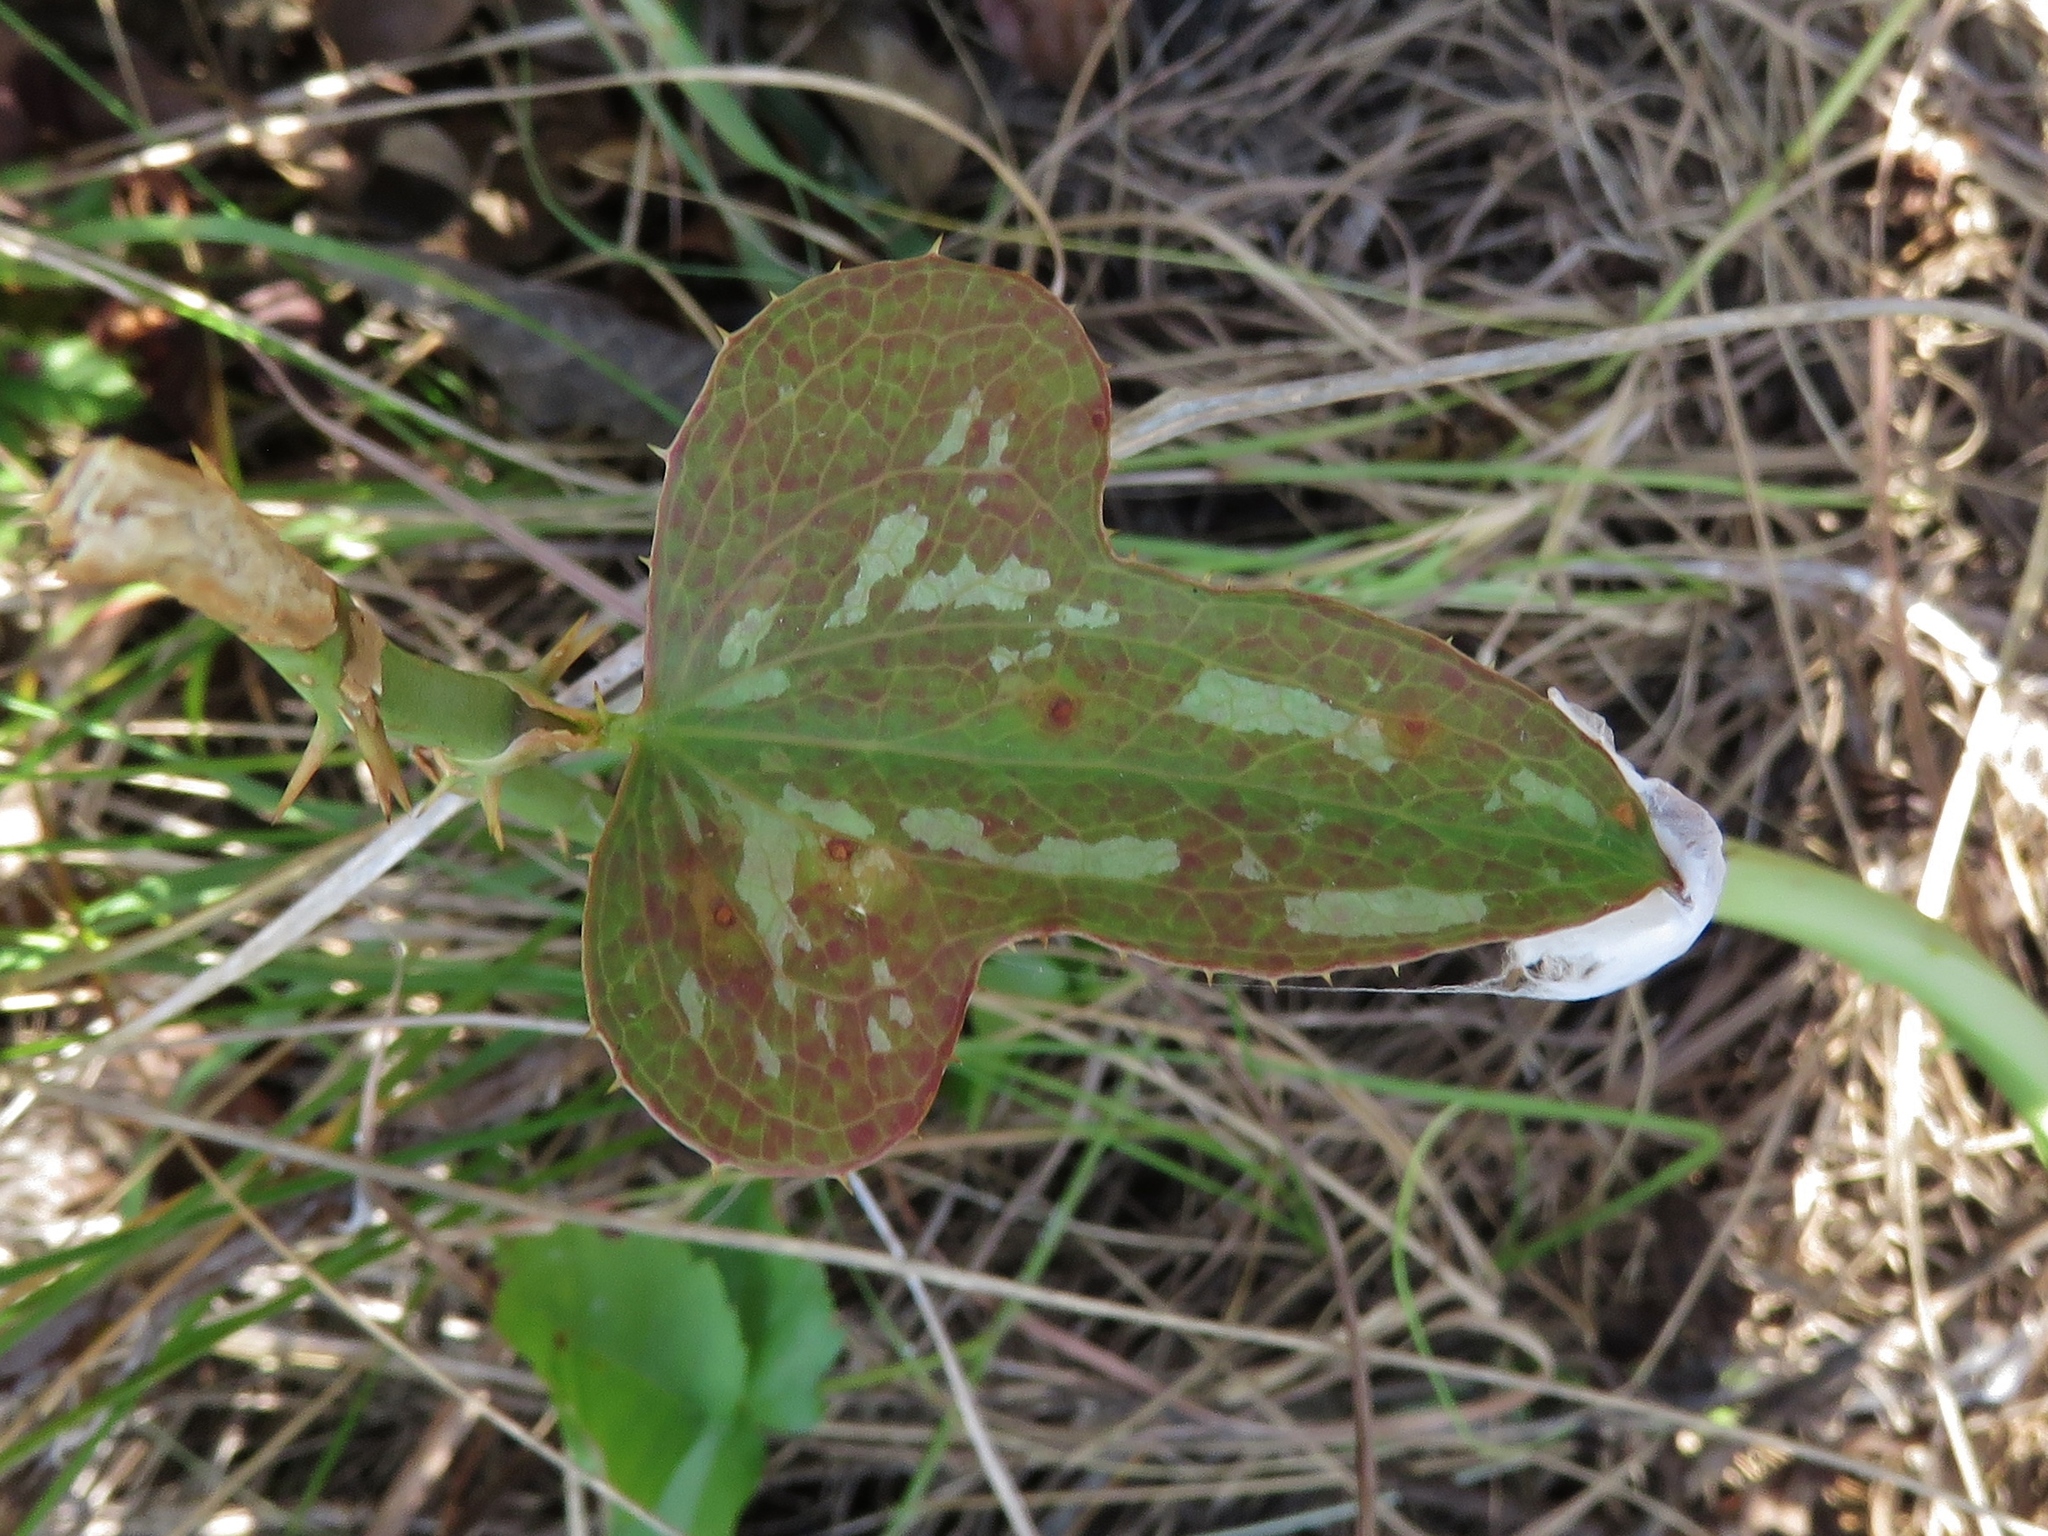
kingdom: Plantae
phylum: Tracheophyta
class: Liliopsida
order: Liliales
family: Smilacaceae
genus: Smilax
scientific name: Smilax bona-nox
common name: Catbrier
